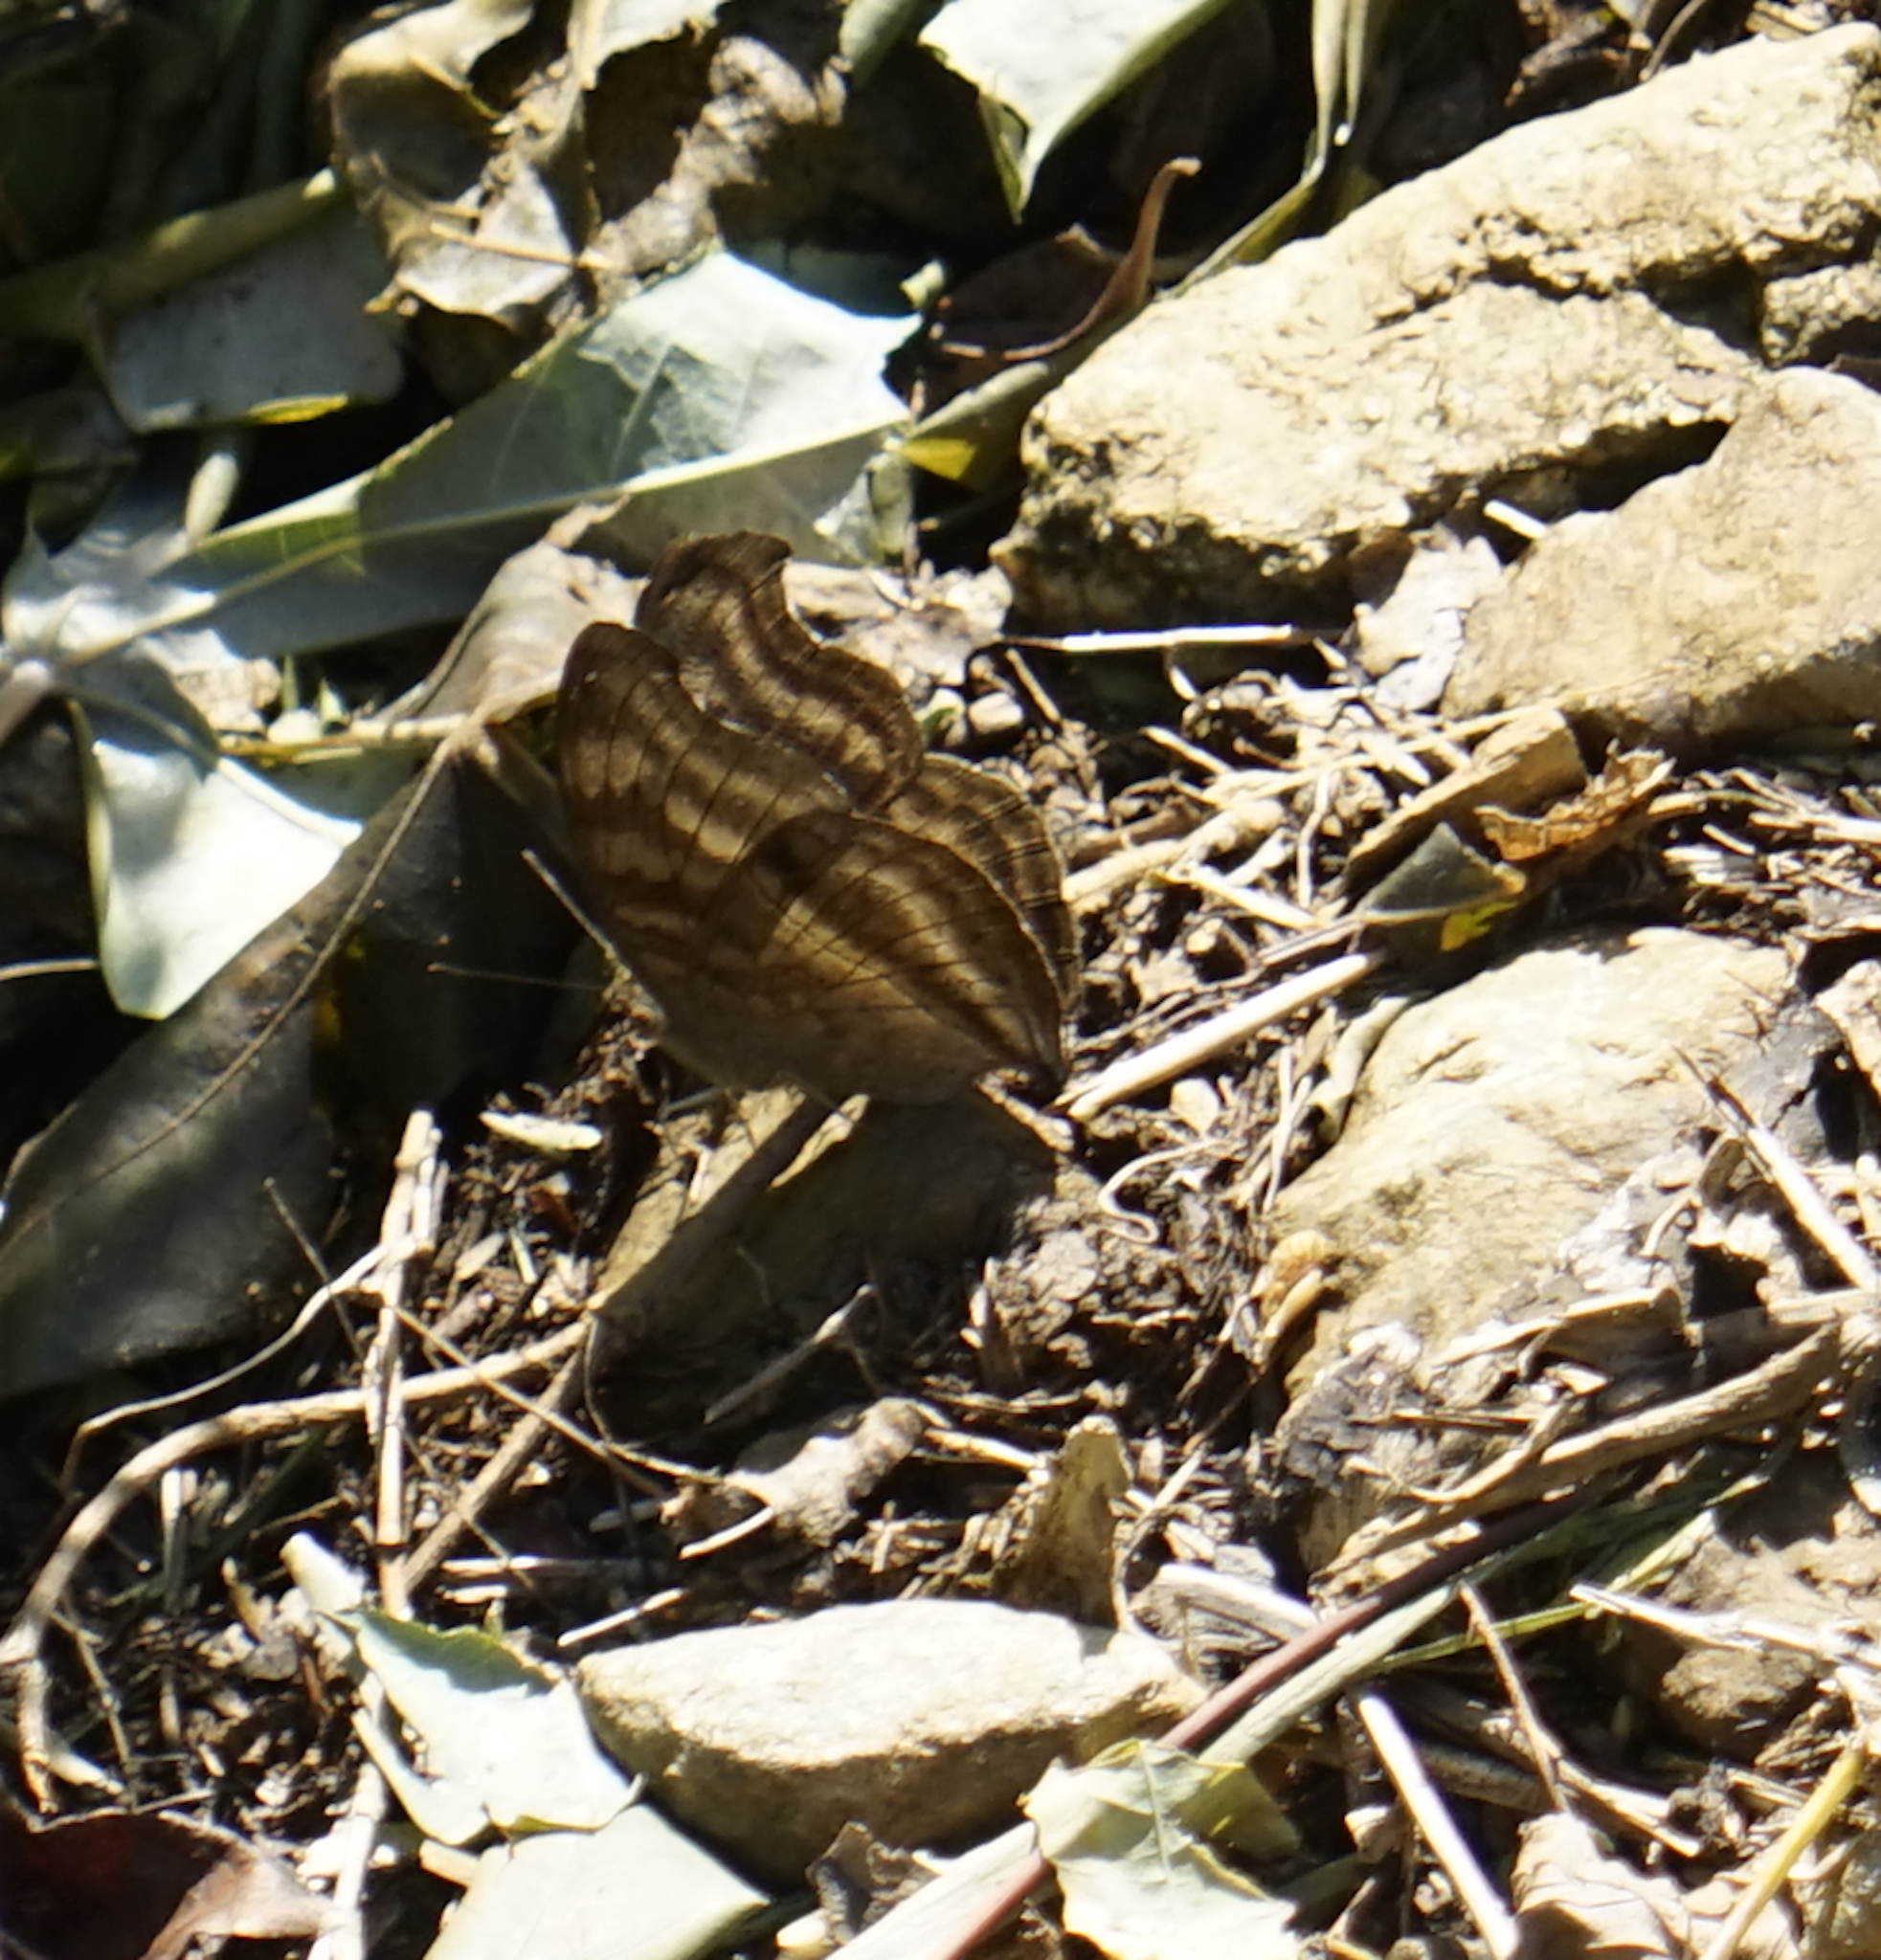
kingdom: Animalia
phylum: Arthropoda
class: Insecta
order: Lepidoptera
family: Nymphalidae
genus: Junonia
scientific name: Junonia iphita
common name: Chocolate pansy
